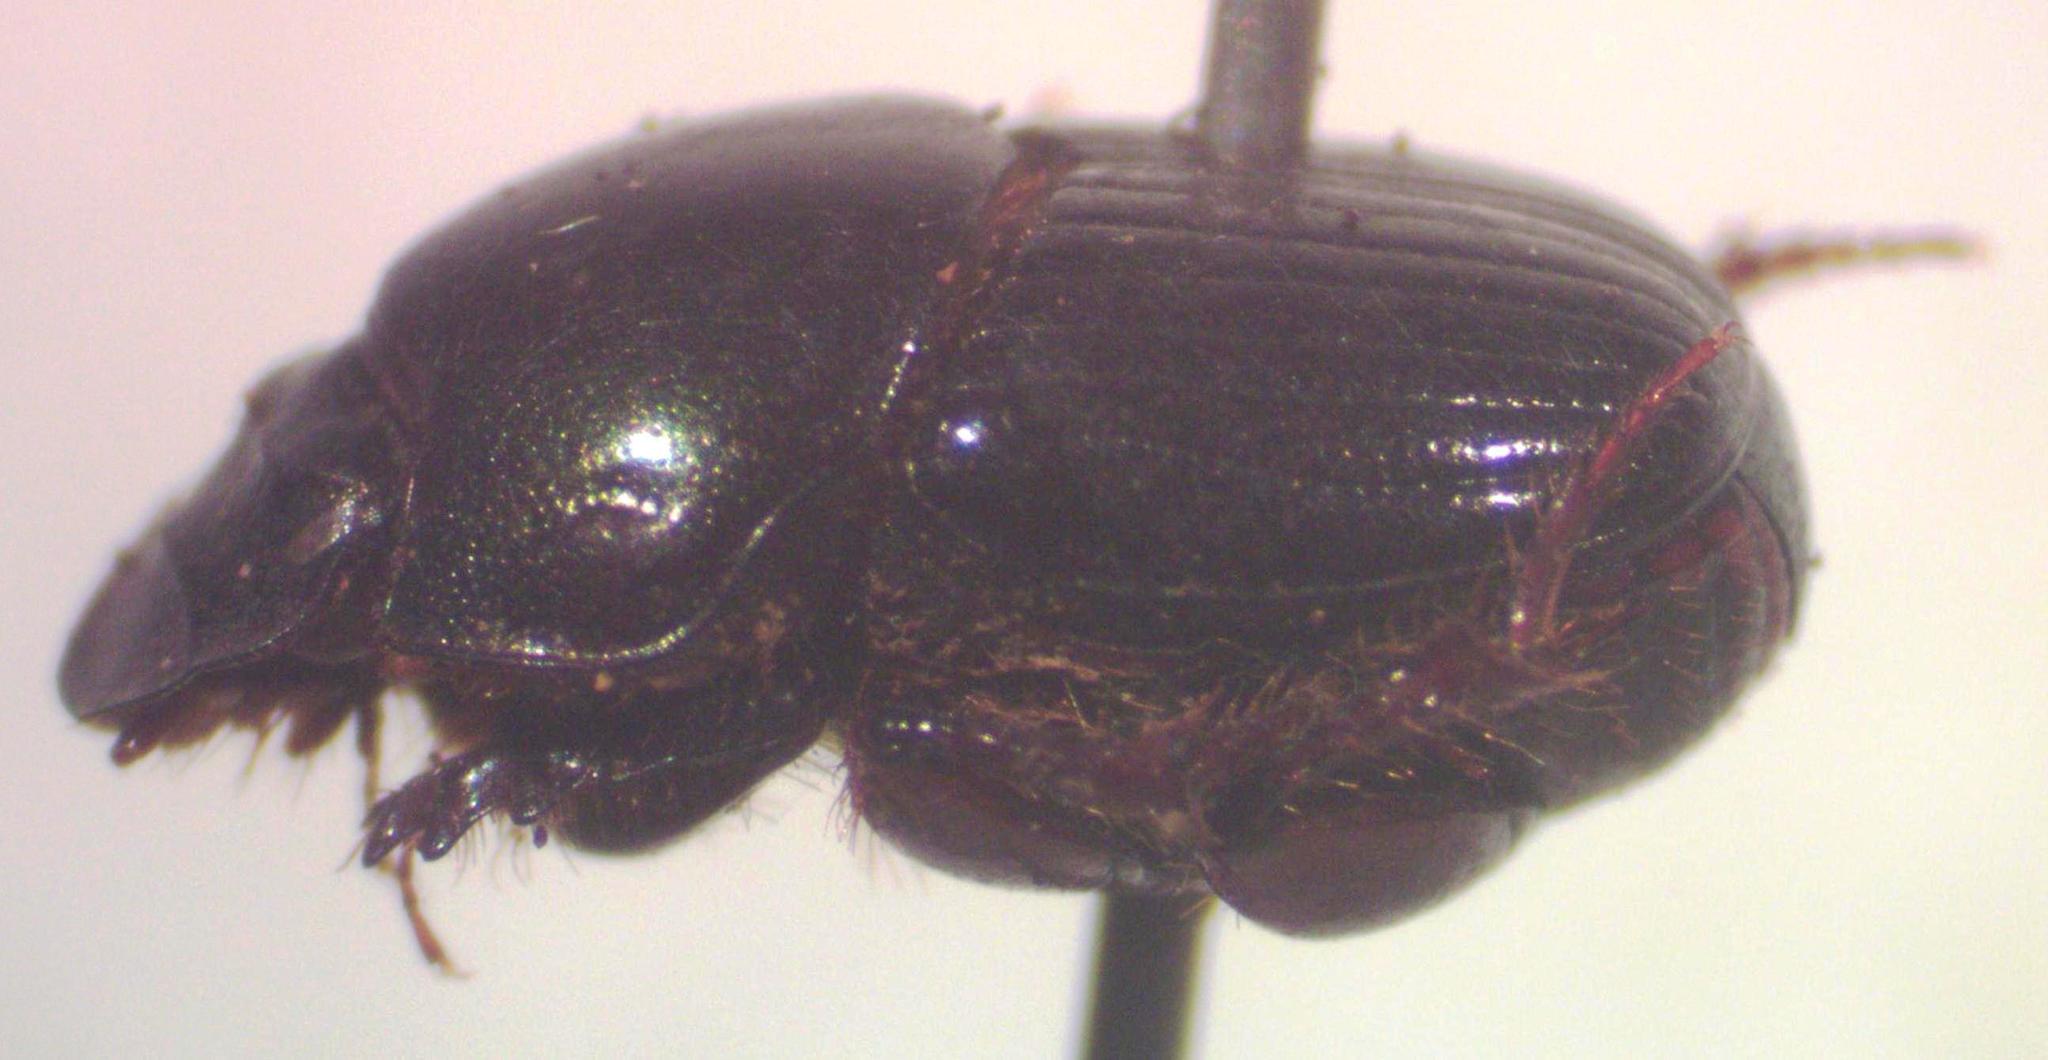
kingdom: Animalia
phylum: Arthropoda
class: Insecta
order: Coleoptera
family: Scarabaeidae
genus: Onthophagus
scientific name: Onthophagus acuminatus
